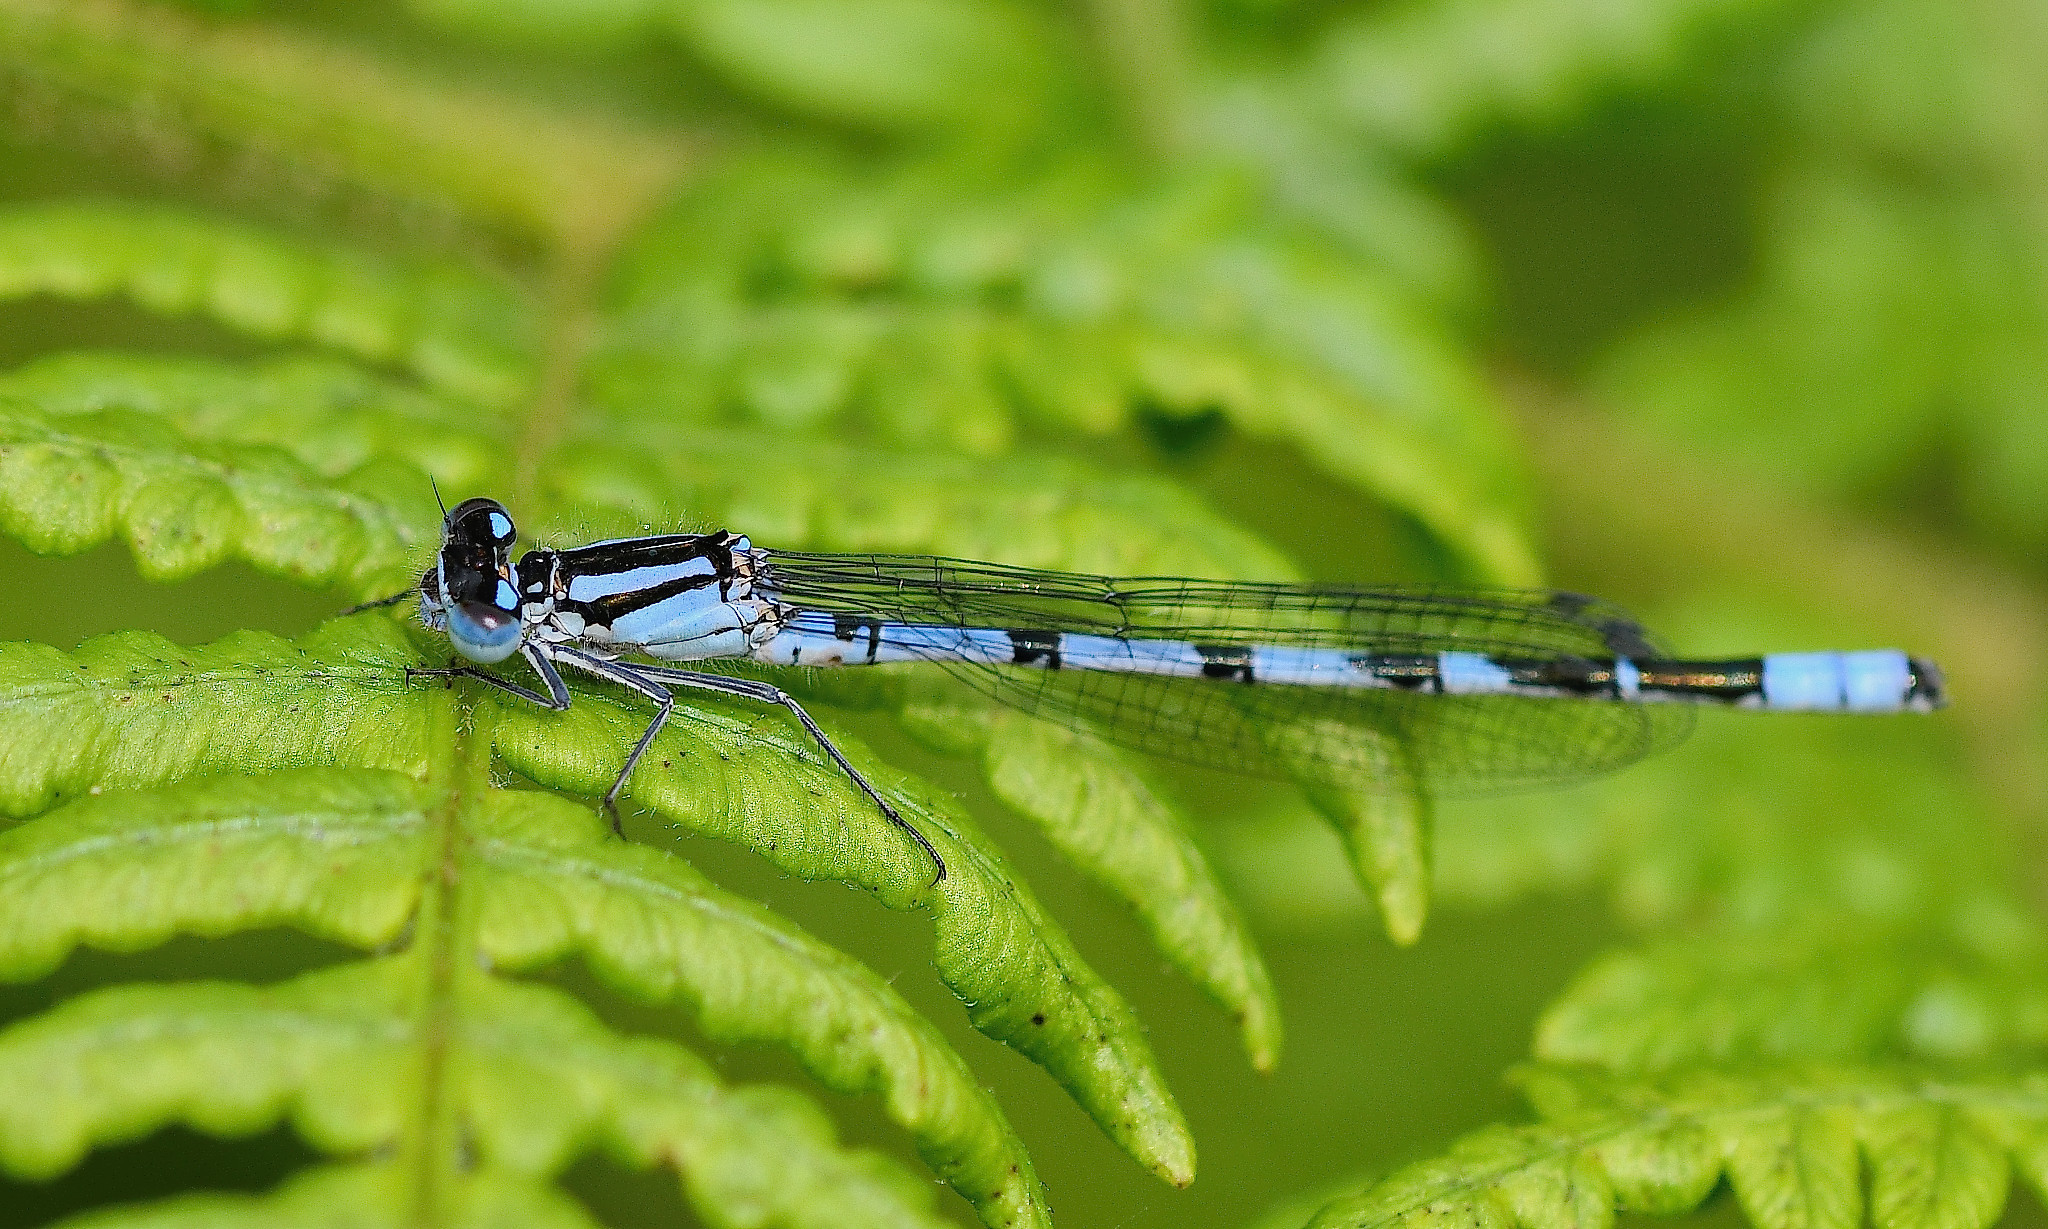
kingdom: Animalia
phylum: Arthropoda
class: Insecta
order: Odonata
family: Coenagrionidae
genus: Enallagma
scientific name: Enallagma cyathigerum
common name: Common blue damselfly
